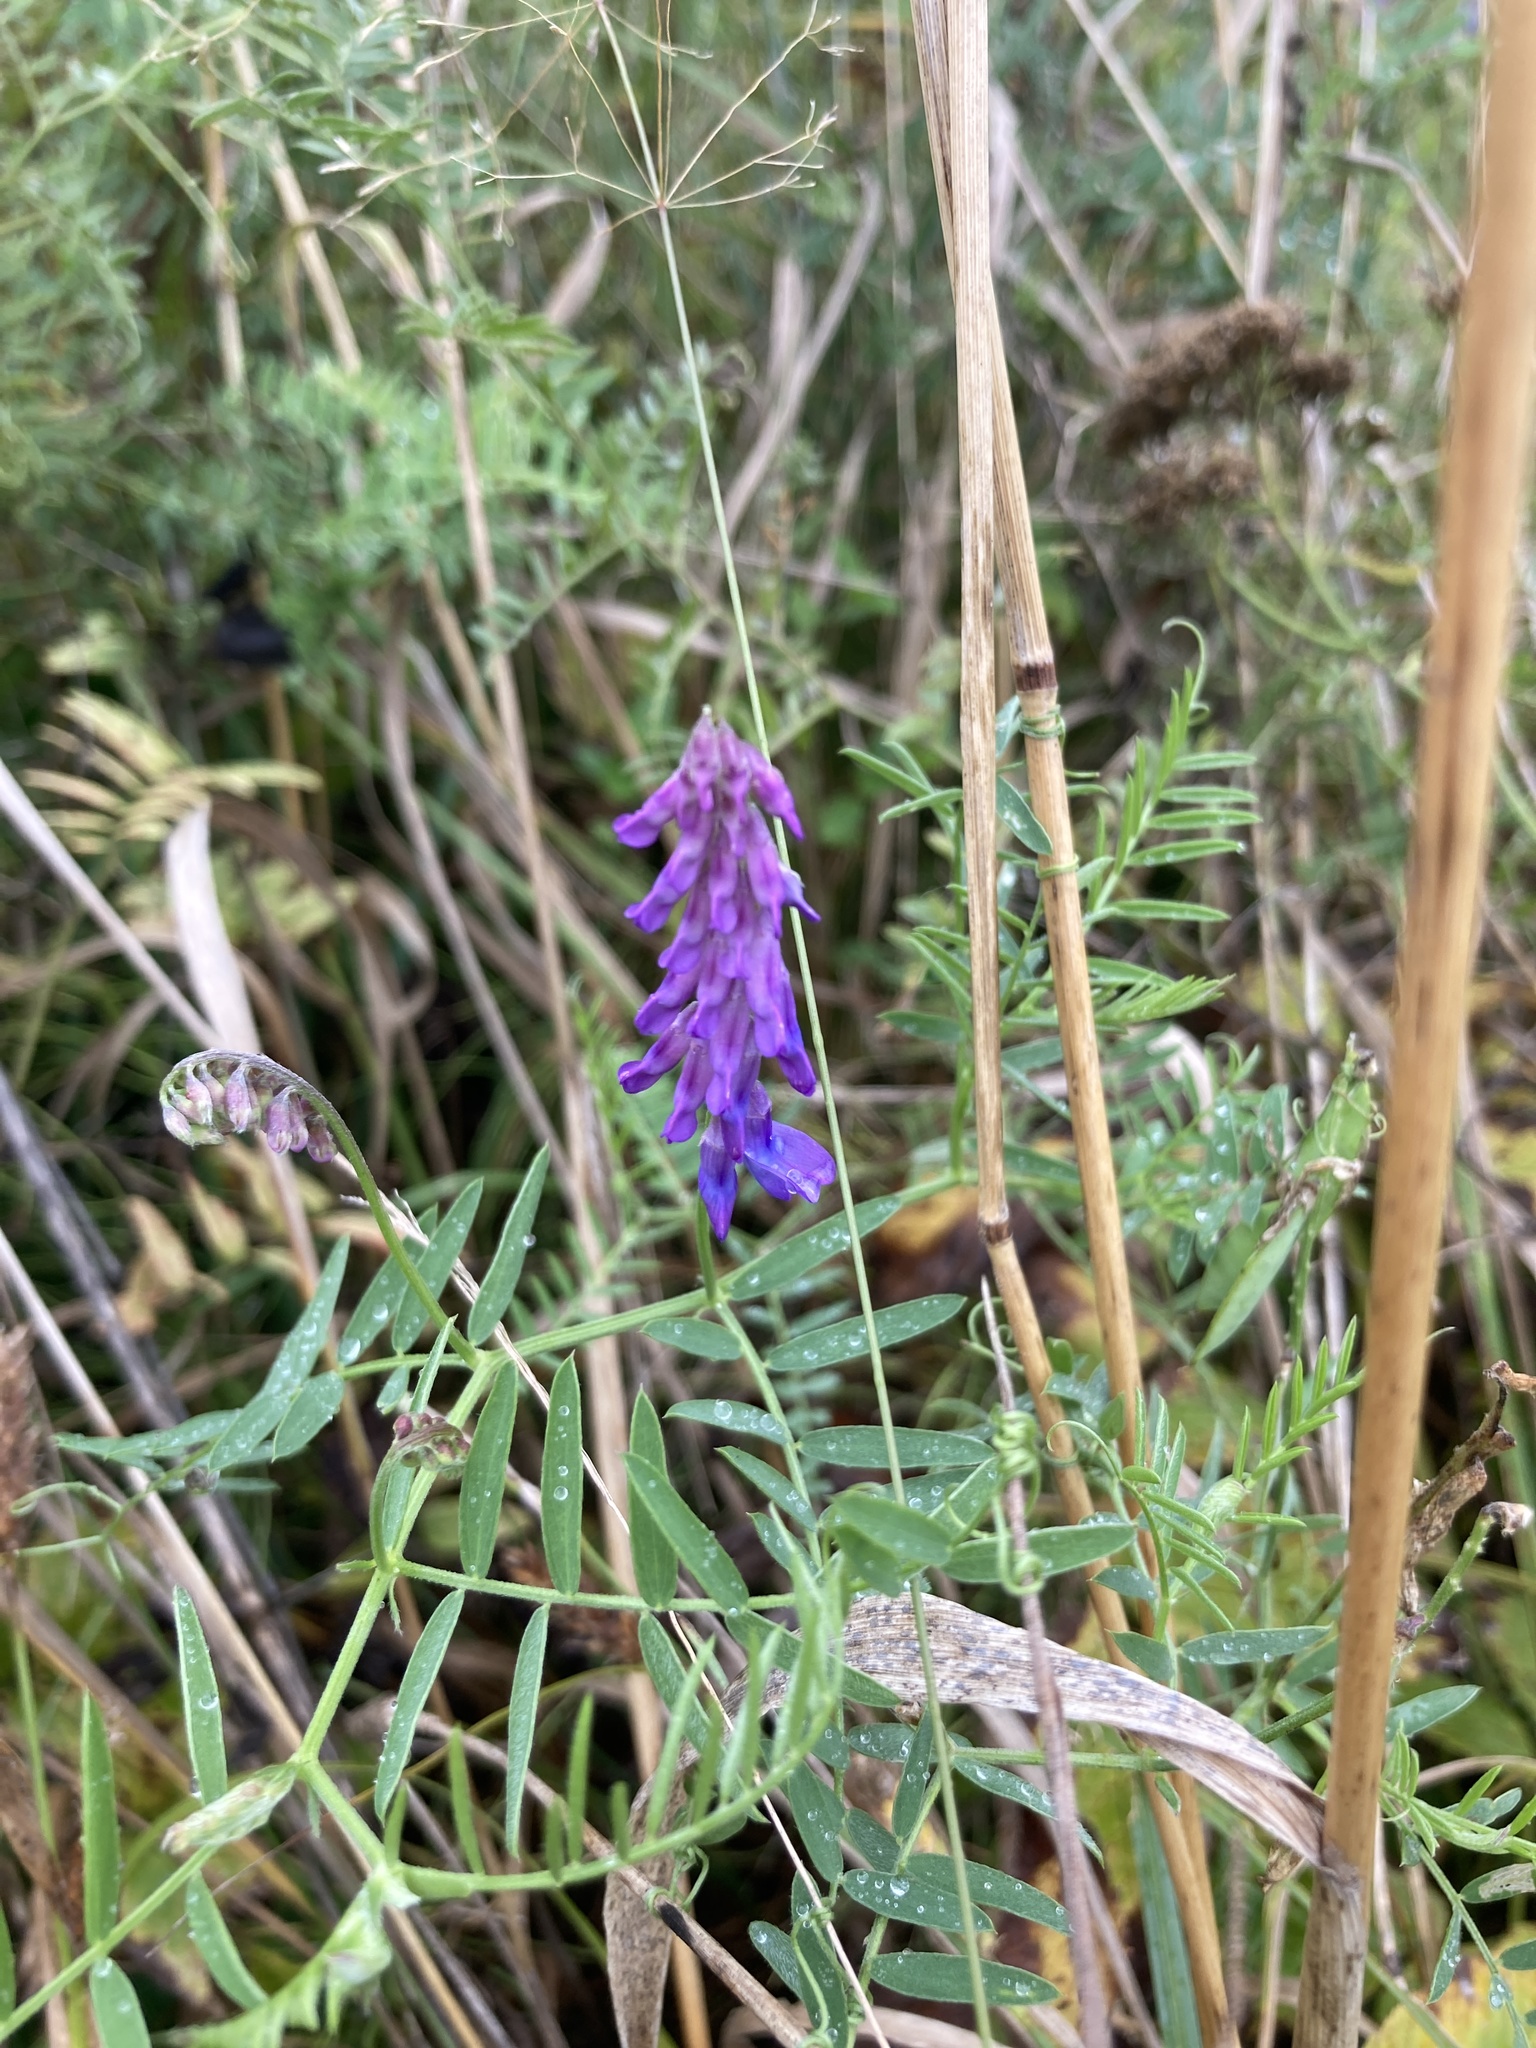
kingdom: Plantae
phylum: Tracheophyta
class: Magnoliopsida
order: Fabales
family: Fabaceae
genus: Vicia
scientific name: Vicia cracca
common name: Bird vetch
